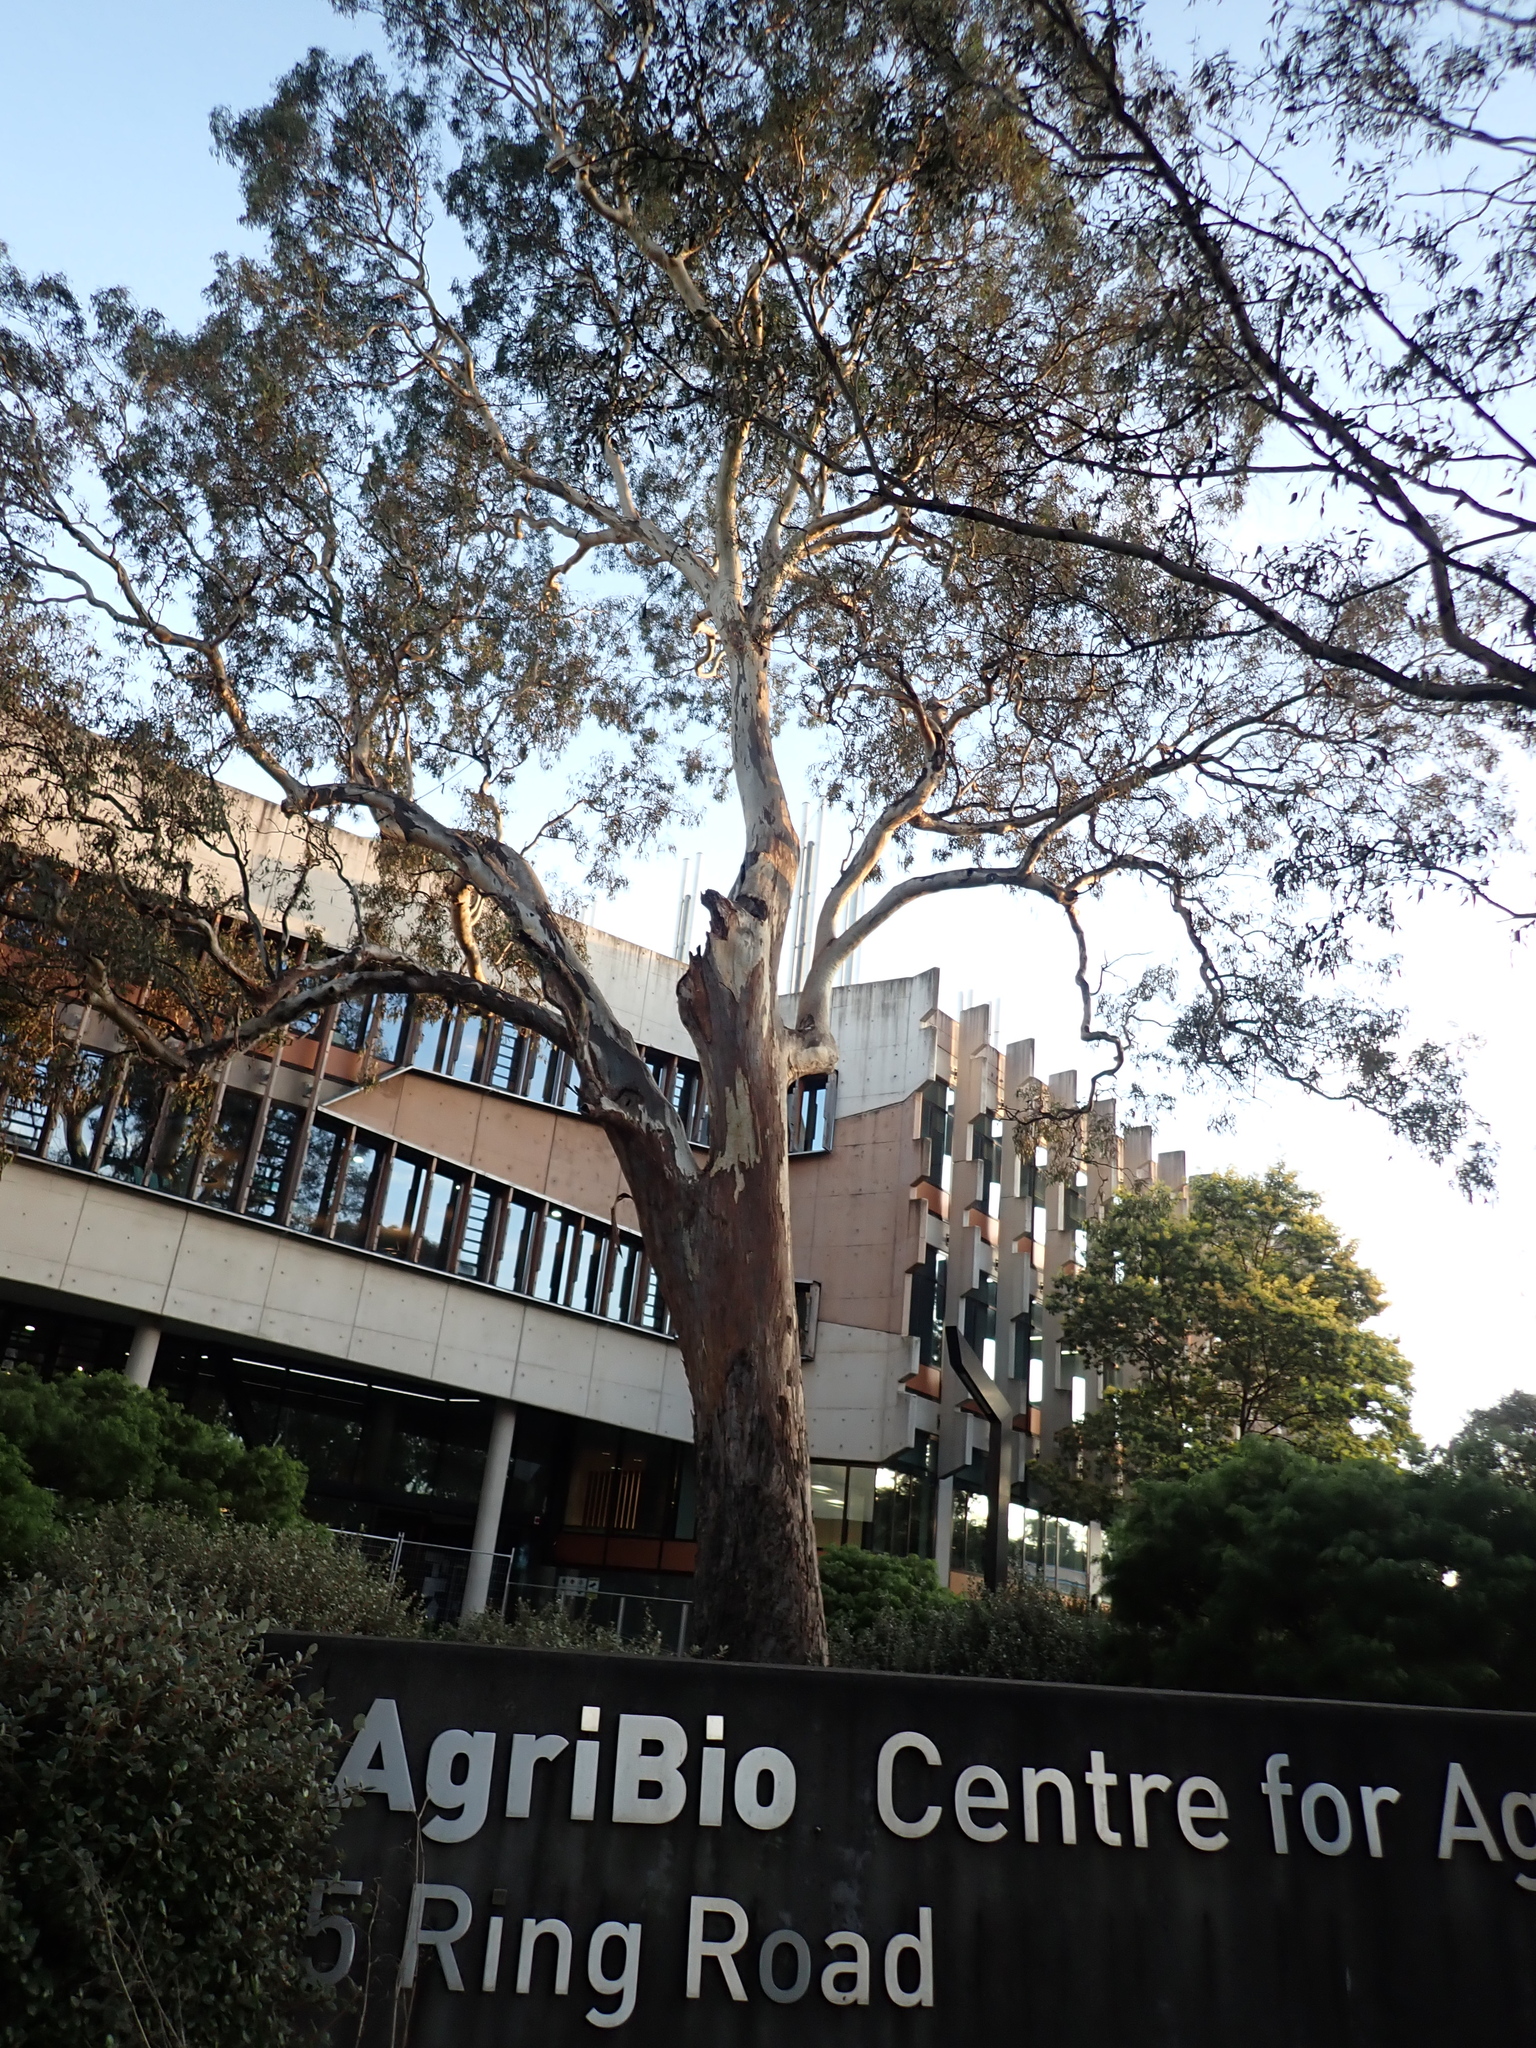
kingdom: Plantae
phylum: Tracheophyta
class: Magnoliopsida
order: Myrtales
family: Myrtaceae
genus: Eucalyptus
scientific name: Eucalyptus camaldulensis
